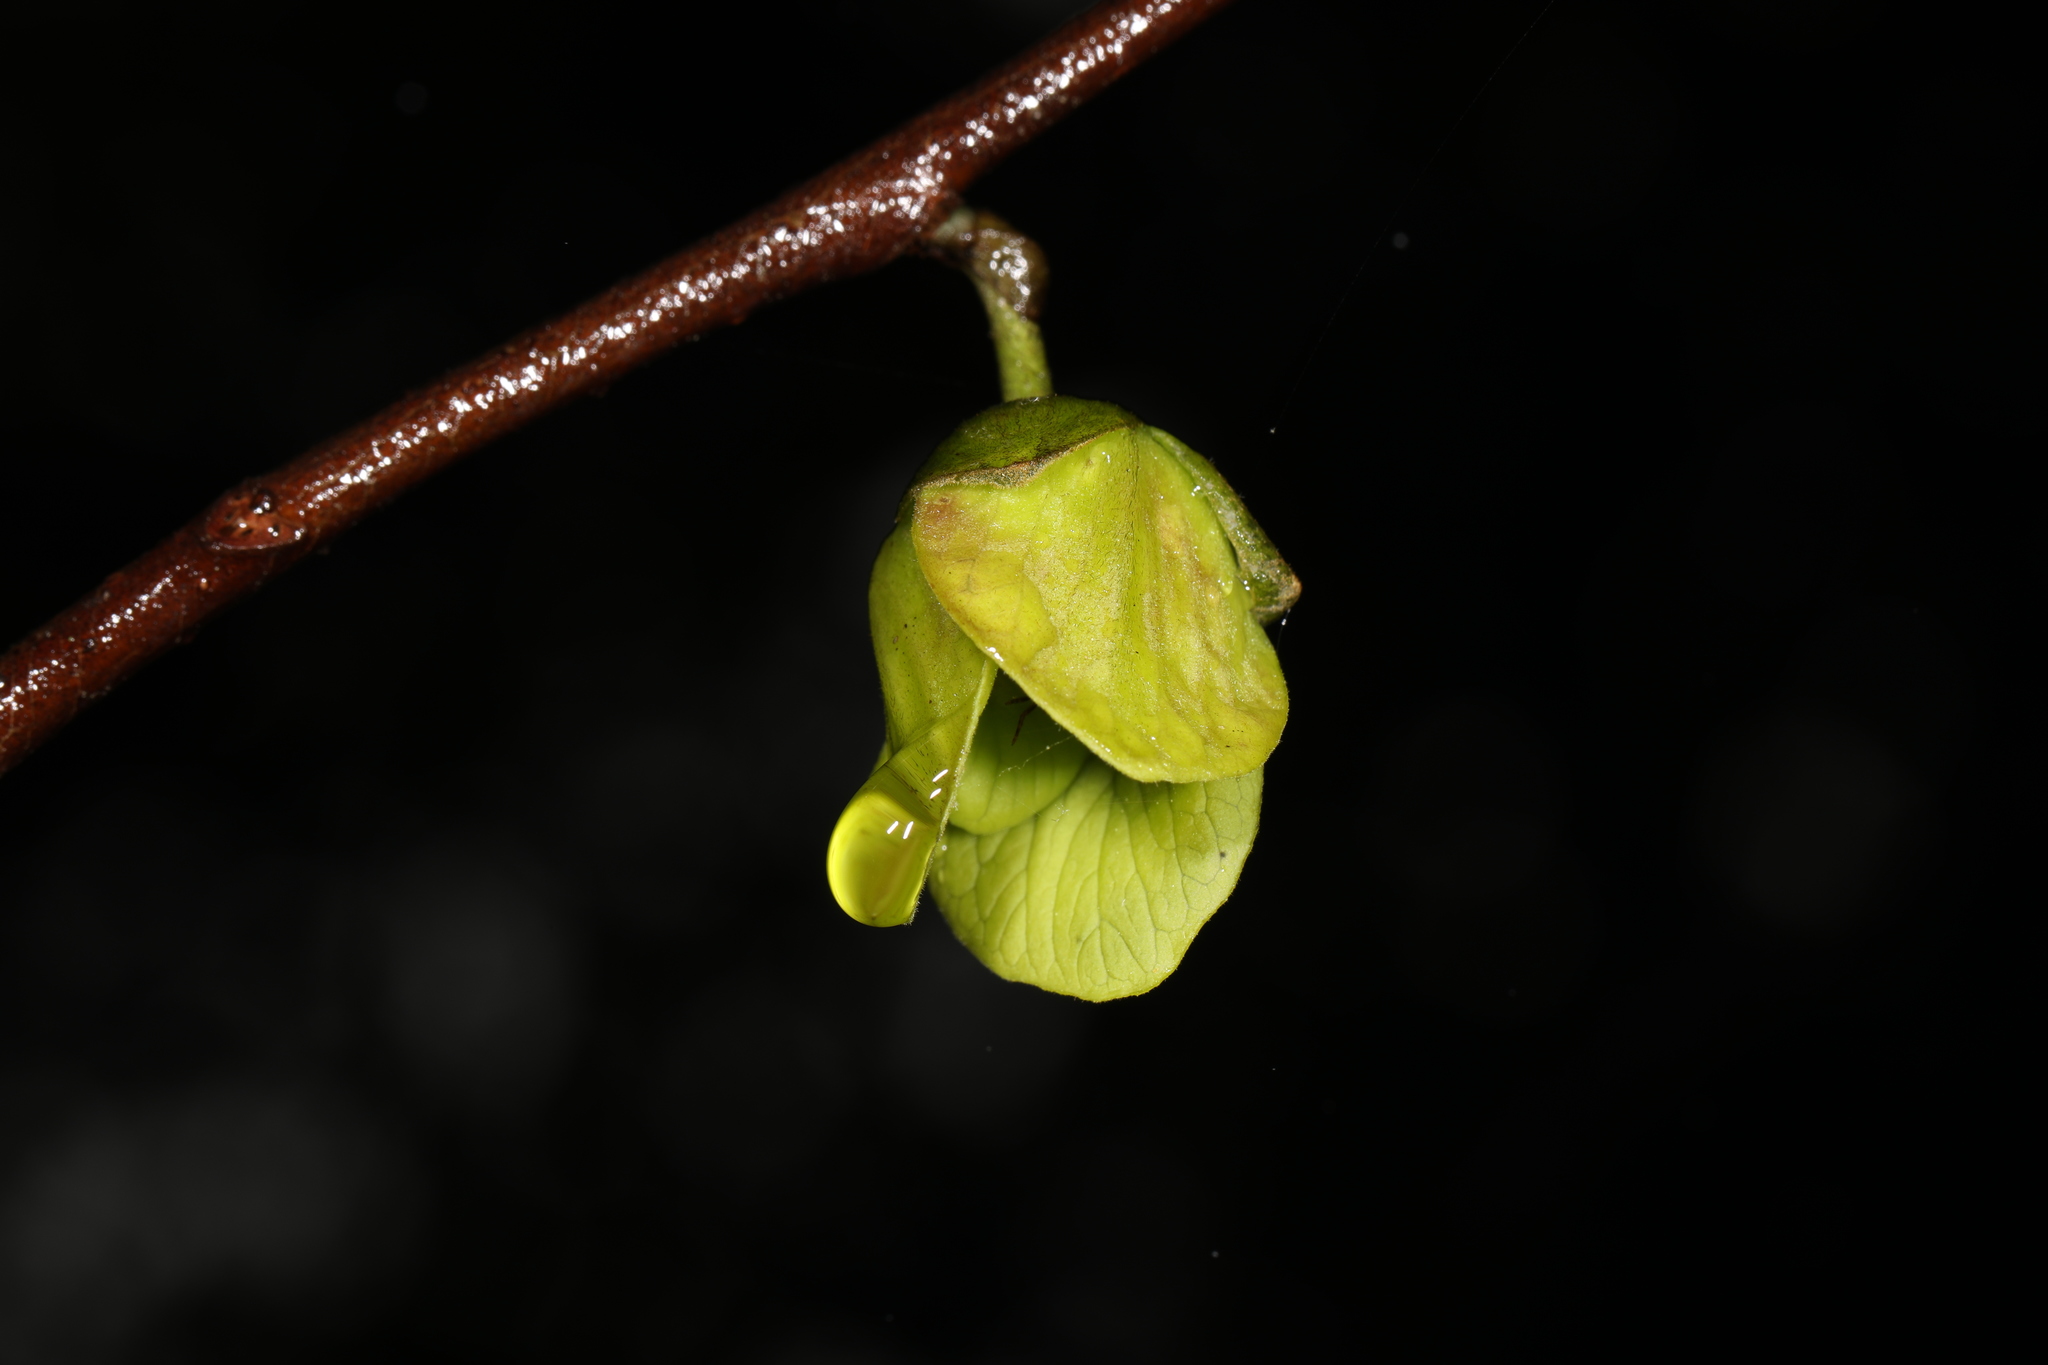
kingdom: Plantae
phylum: Tracheophyta
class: Magnoliopsida
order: Magnoliales
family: Annonaceae
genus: Asimina
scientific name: Asimina triloba
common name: Dog-banana
